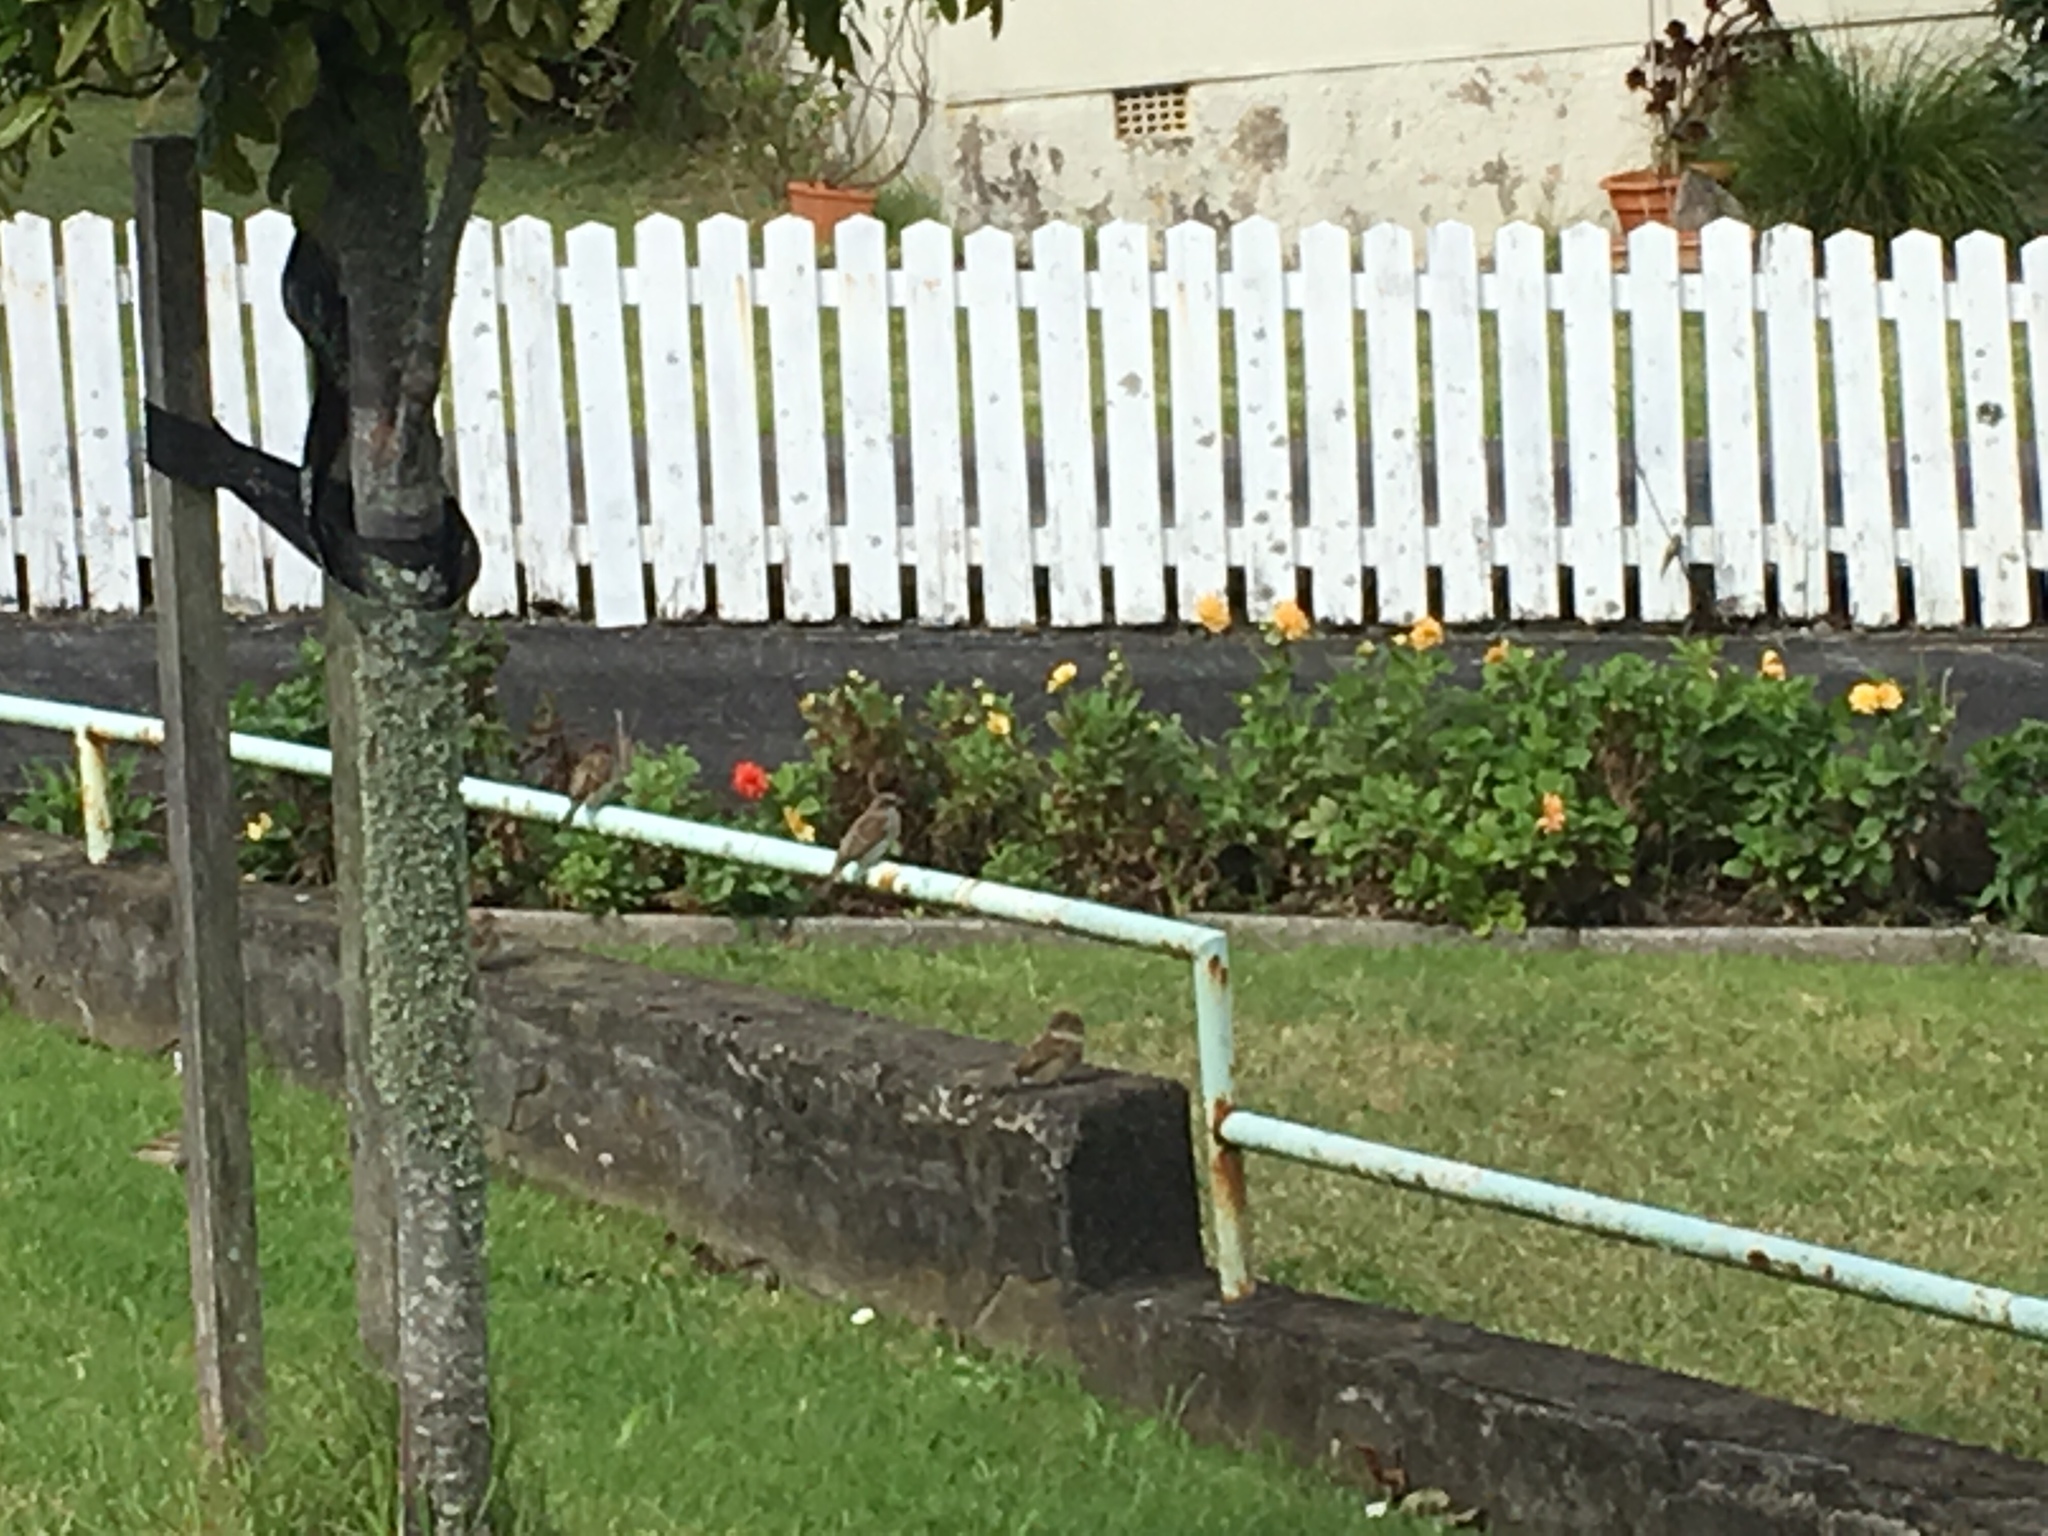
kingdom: Animalia
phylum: Chordata
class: Aves
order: Passeriformes
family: Passeridae
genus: Passer
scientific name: Passer domesticus
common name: House sparrow
